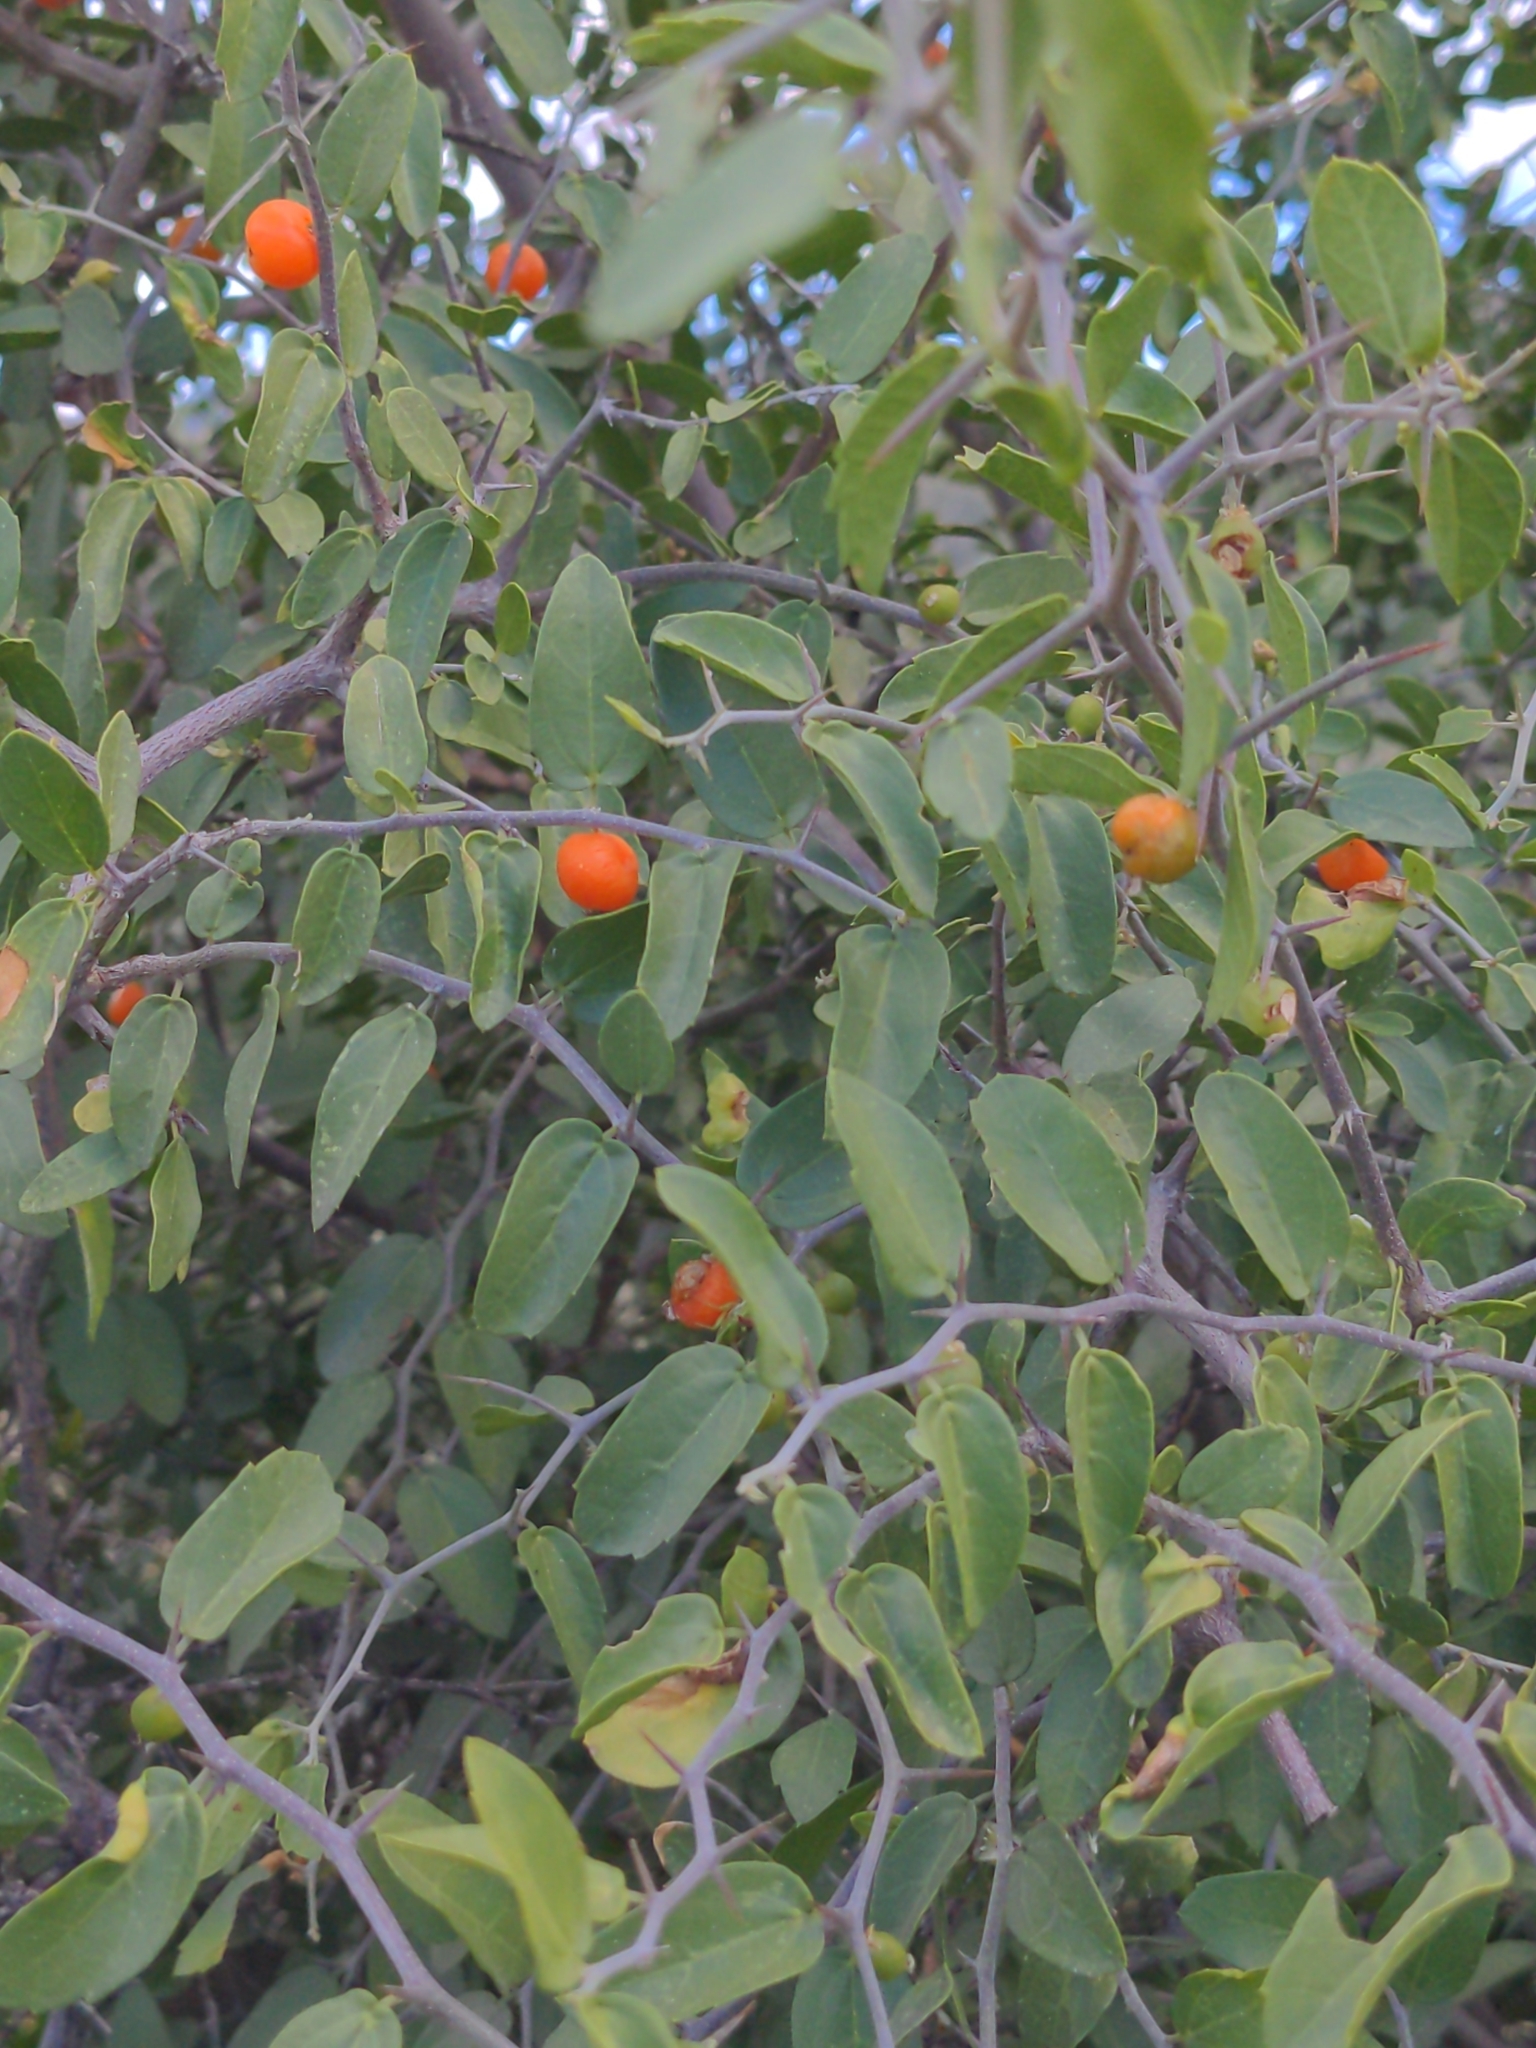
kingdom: Plantae
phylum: Tracheophyta
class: Magnoliopsida
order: Rosales
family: Cannabaceae
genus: Celtis
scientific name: Celtis pallida
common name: Desert hackberry
